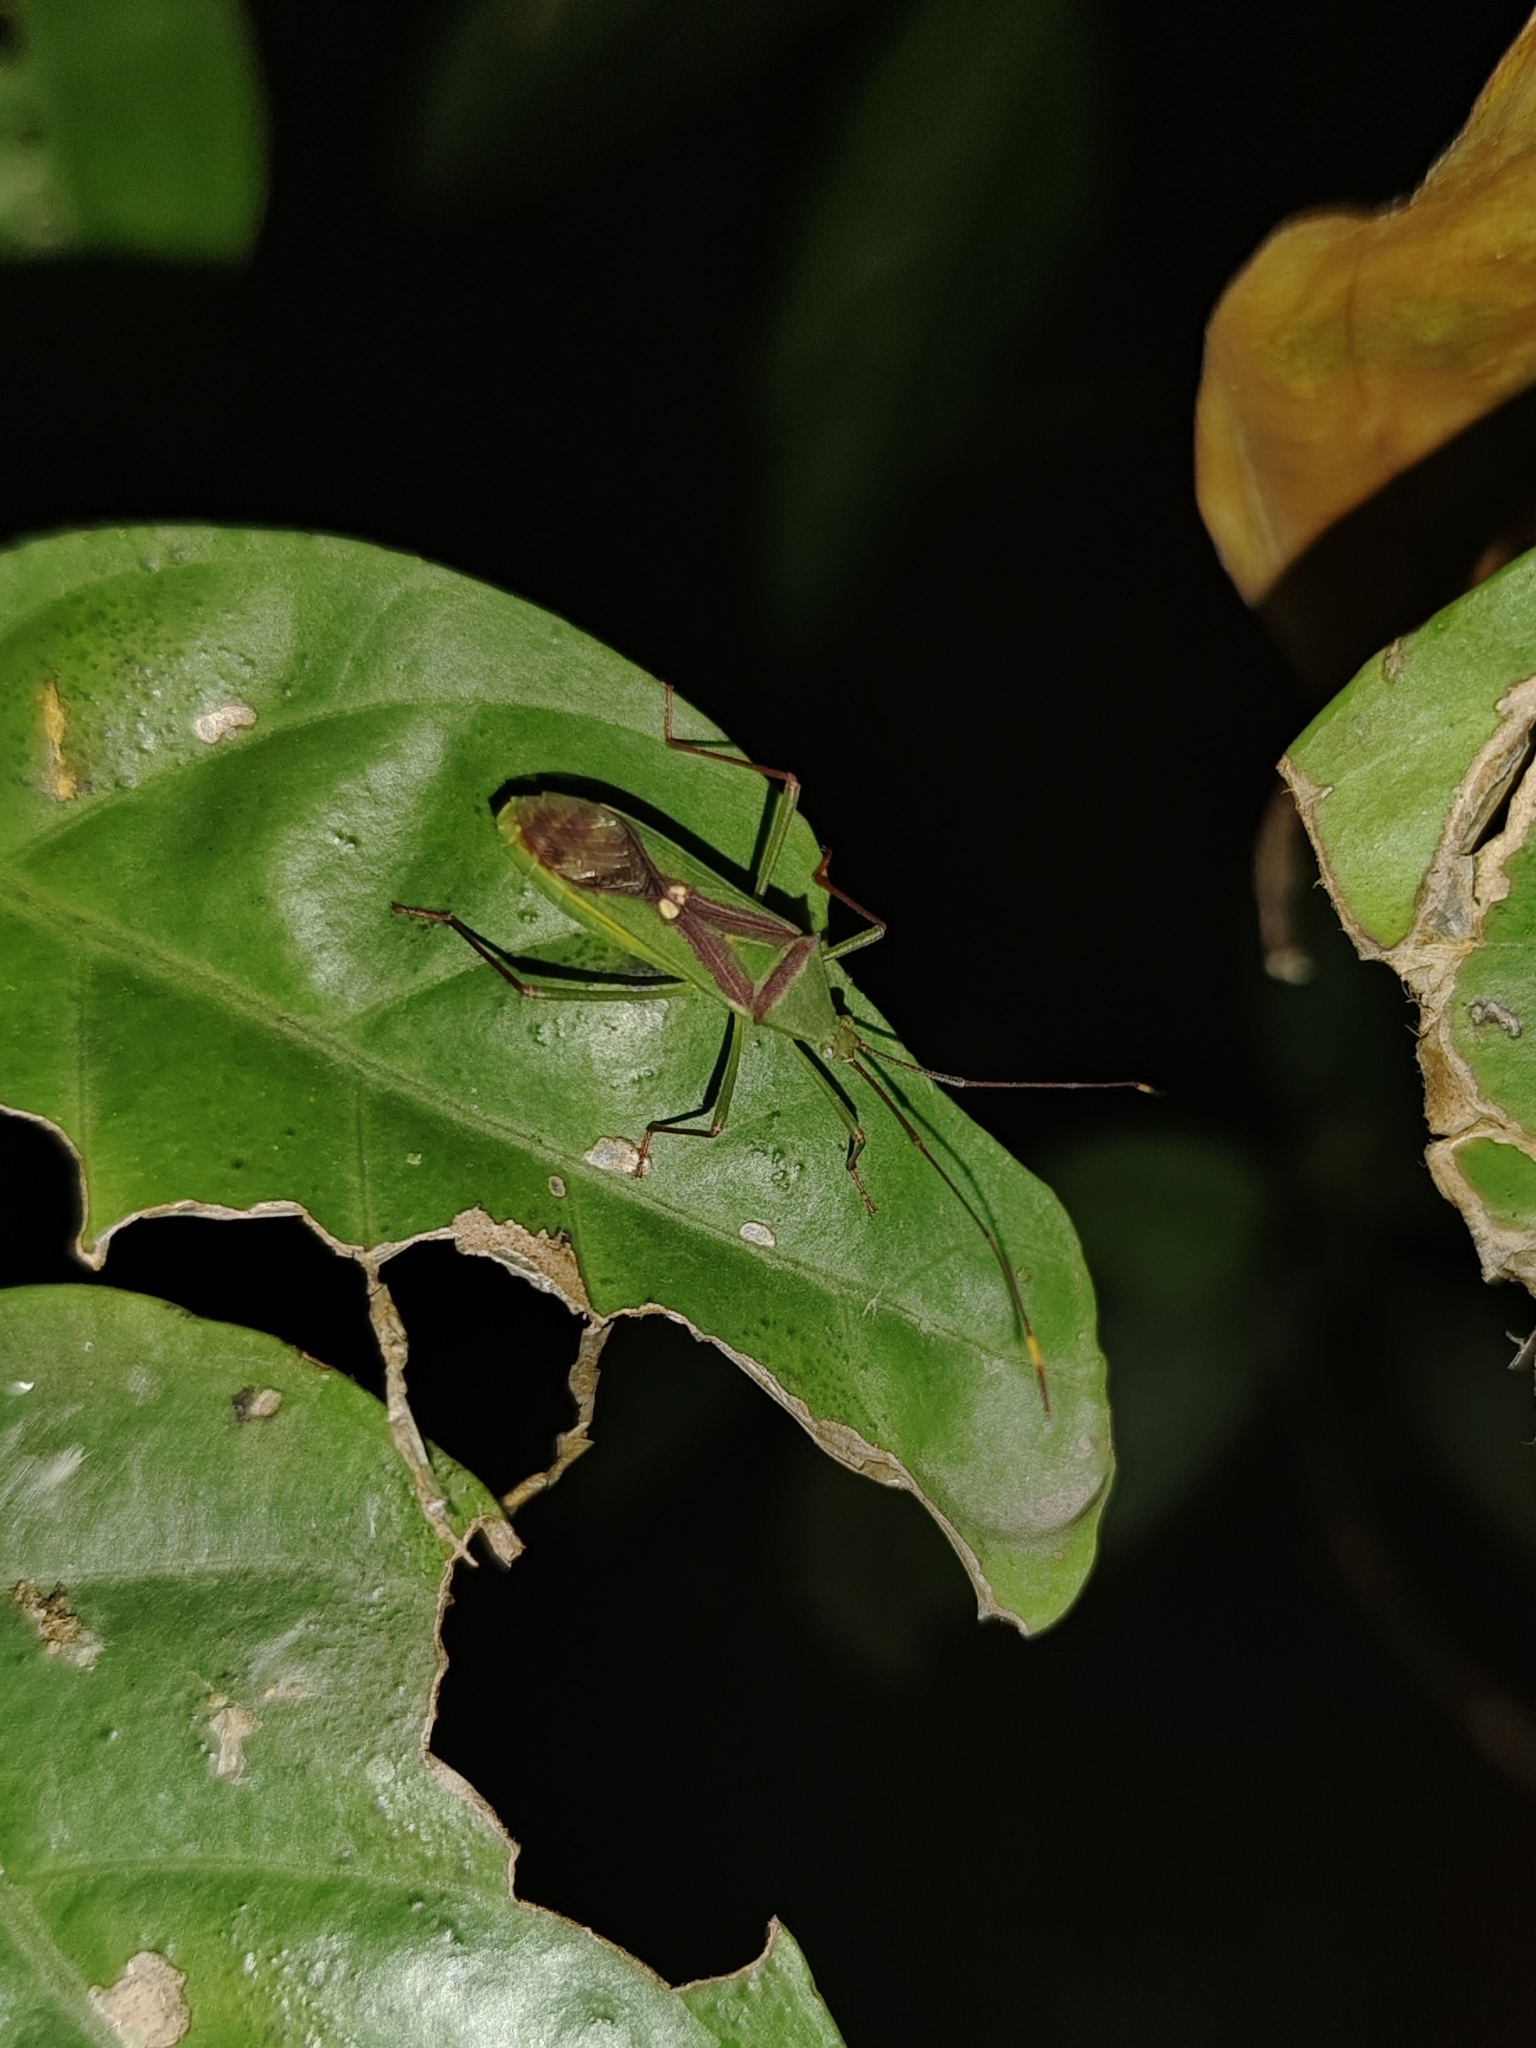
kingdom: Animalia
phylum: Arthropoda
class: Insecta
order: Hemiptera
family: Coreidae
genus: Homoeocerus
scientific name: Homoeocerus gutta
